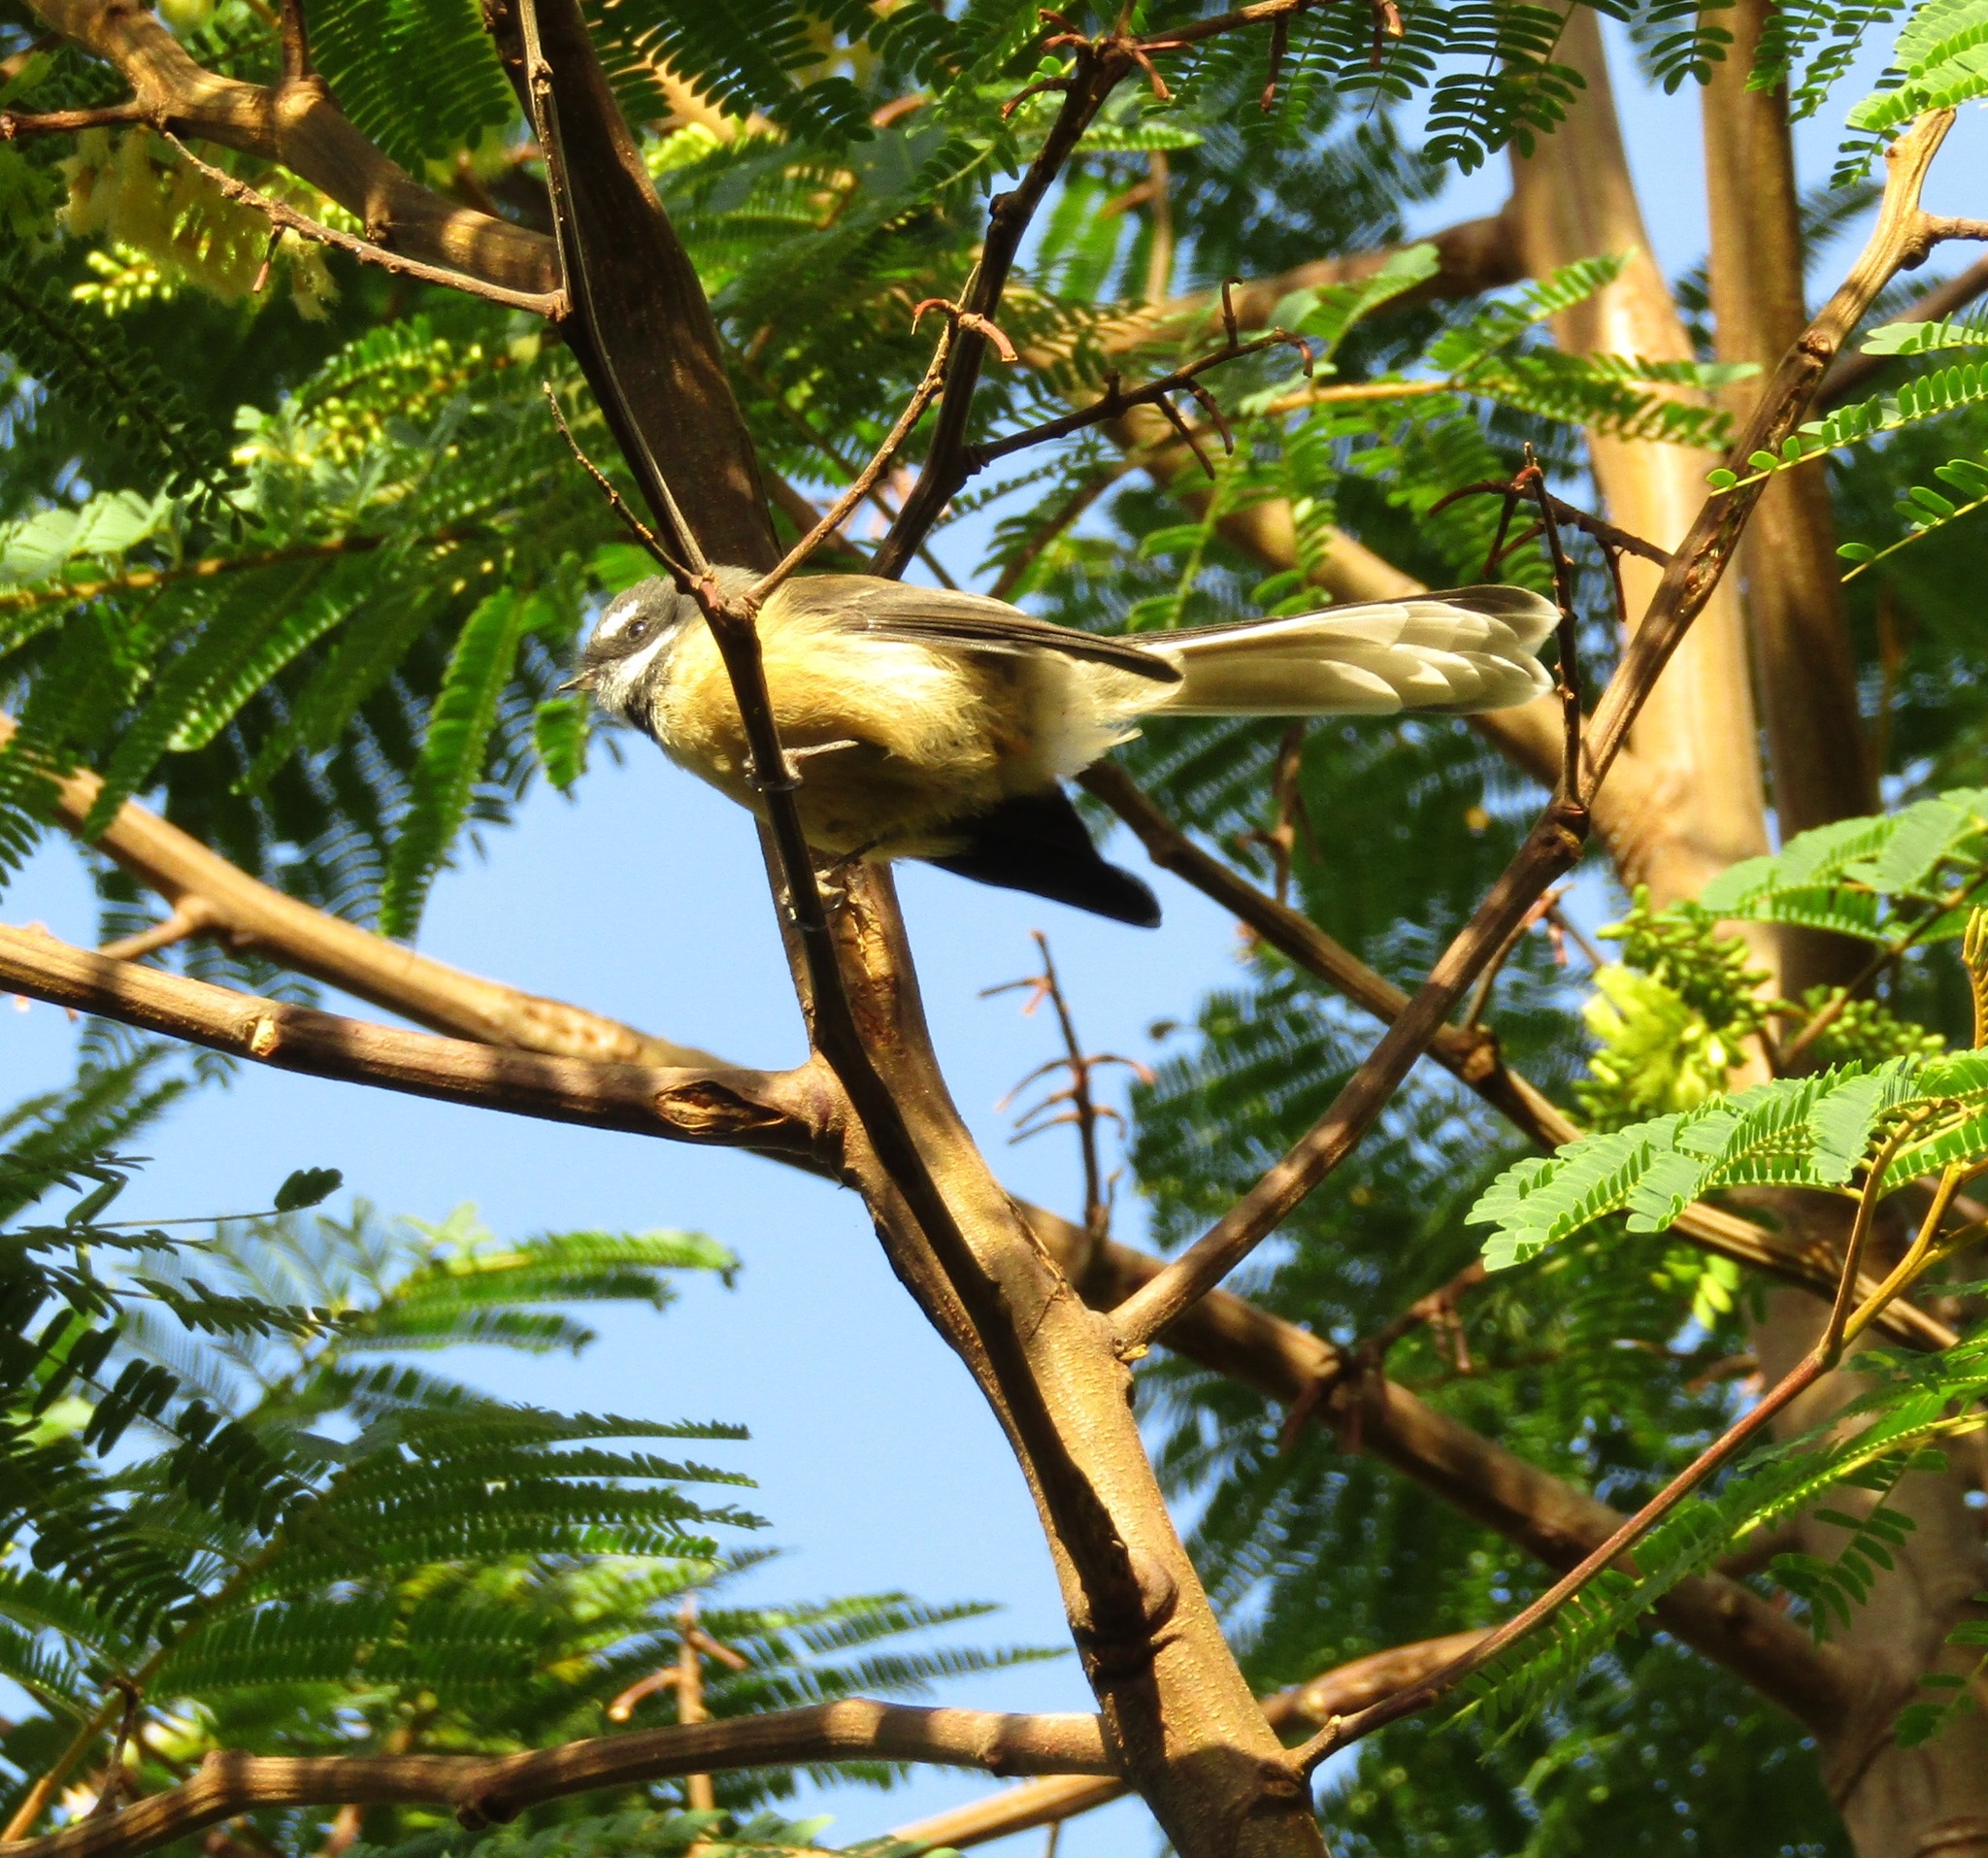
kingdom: Animalia
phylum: Chordata
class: Aves
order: Passeriformes
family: Rhipiduridae
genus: Rhipidura
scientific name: Rhipidura fuliginosa
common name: New zealand fantail
